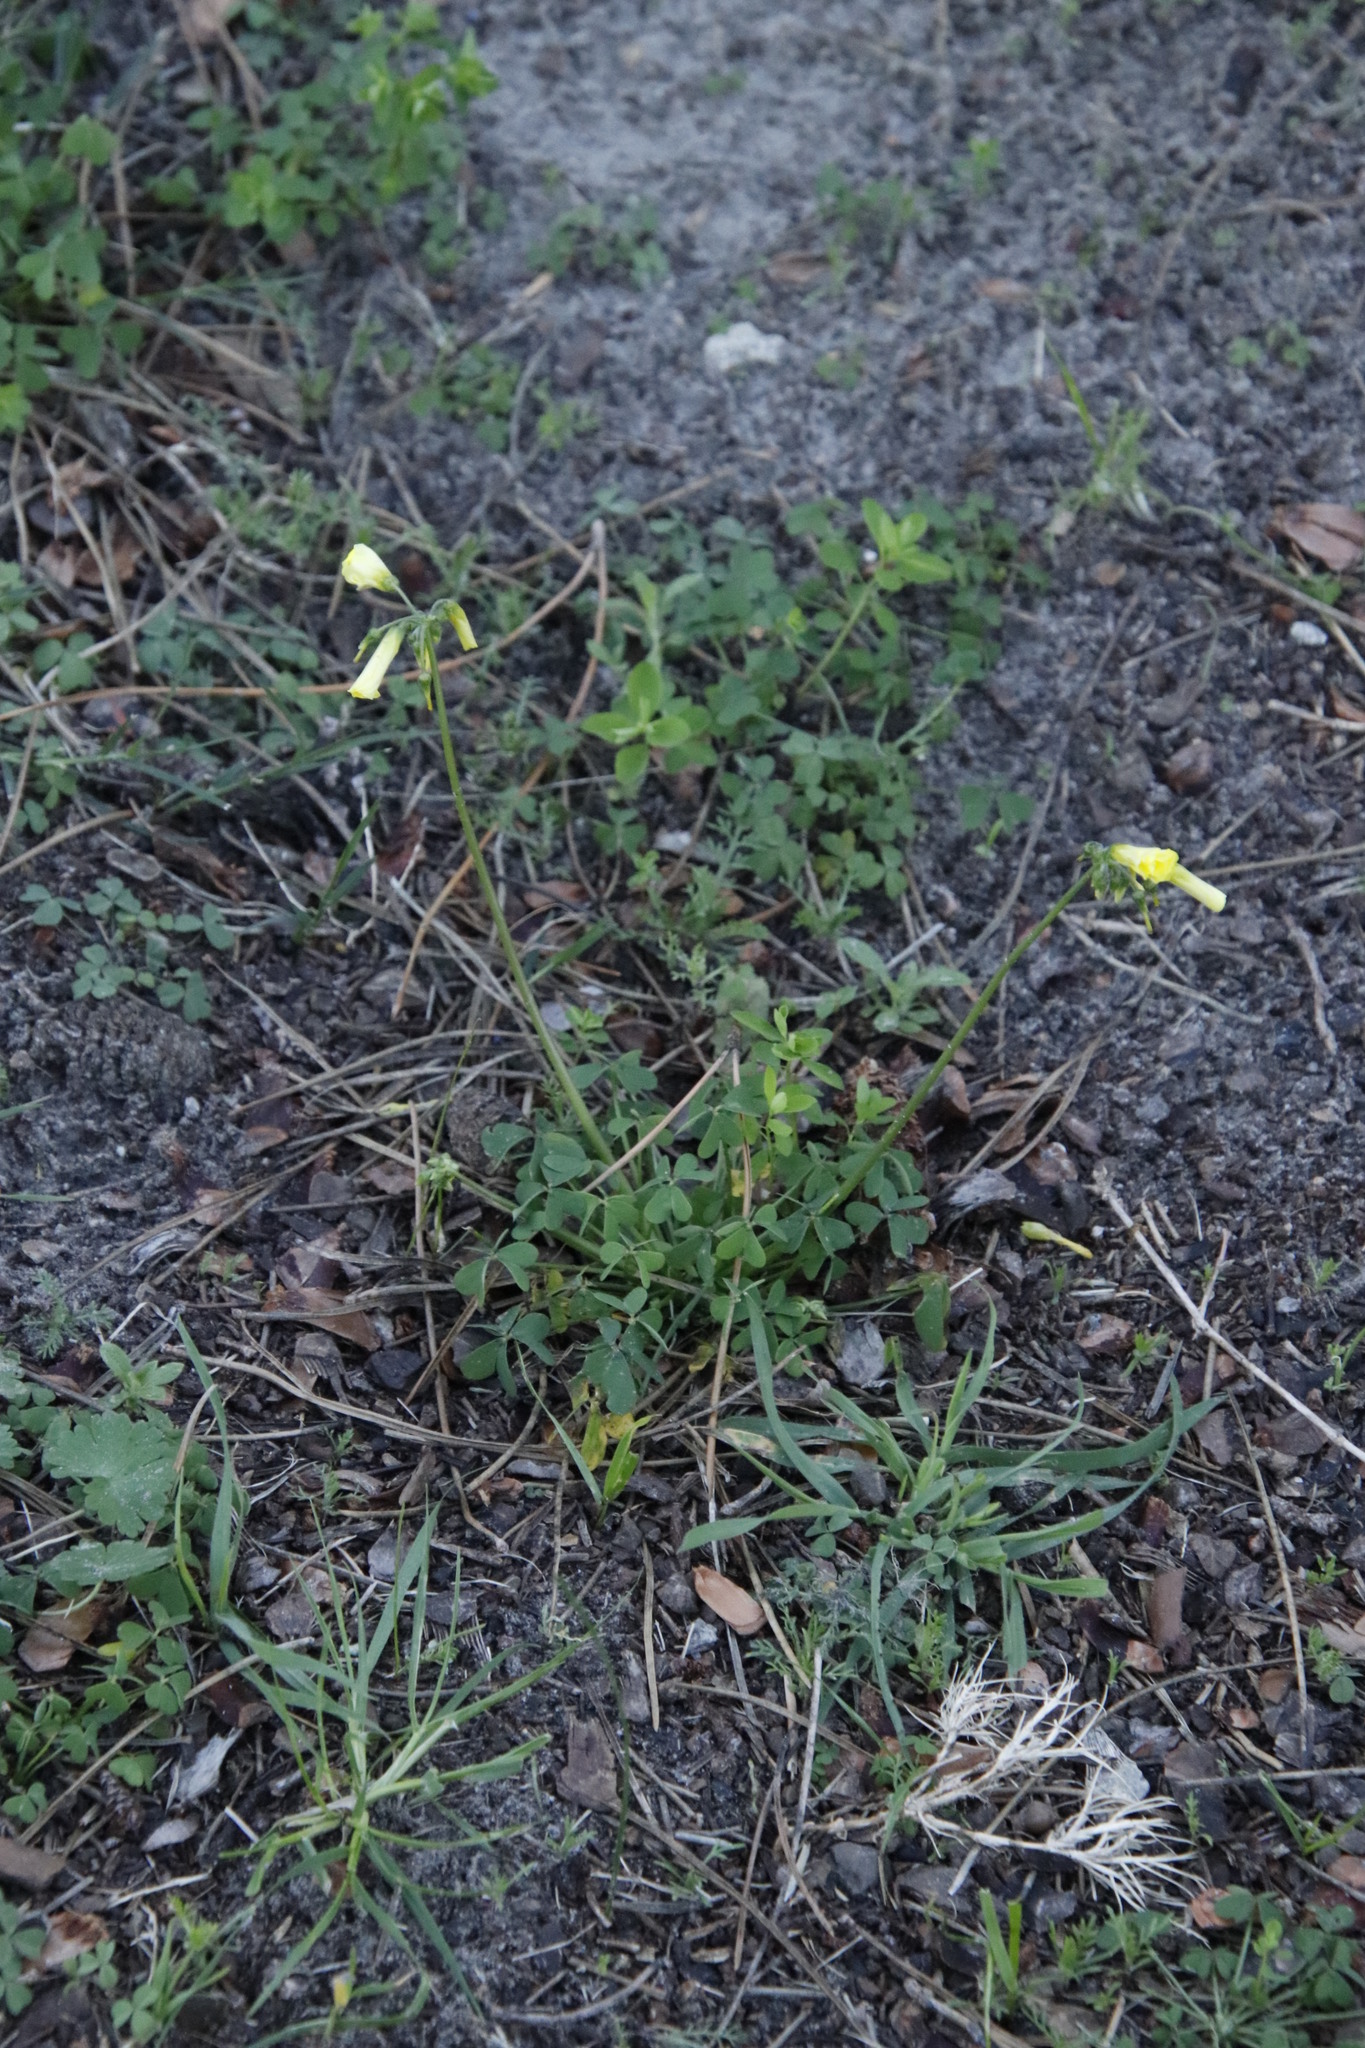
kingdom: Plantae
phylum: Tracheophyta
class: Magnoliopsida
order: Oxalidales
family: Oxalidaceae
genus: Oxalis
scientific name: Oxalis pes-caprae
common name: Bermuda-buttercup
